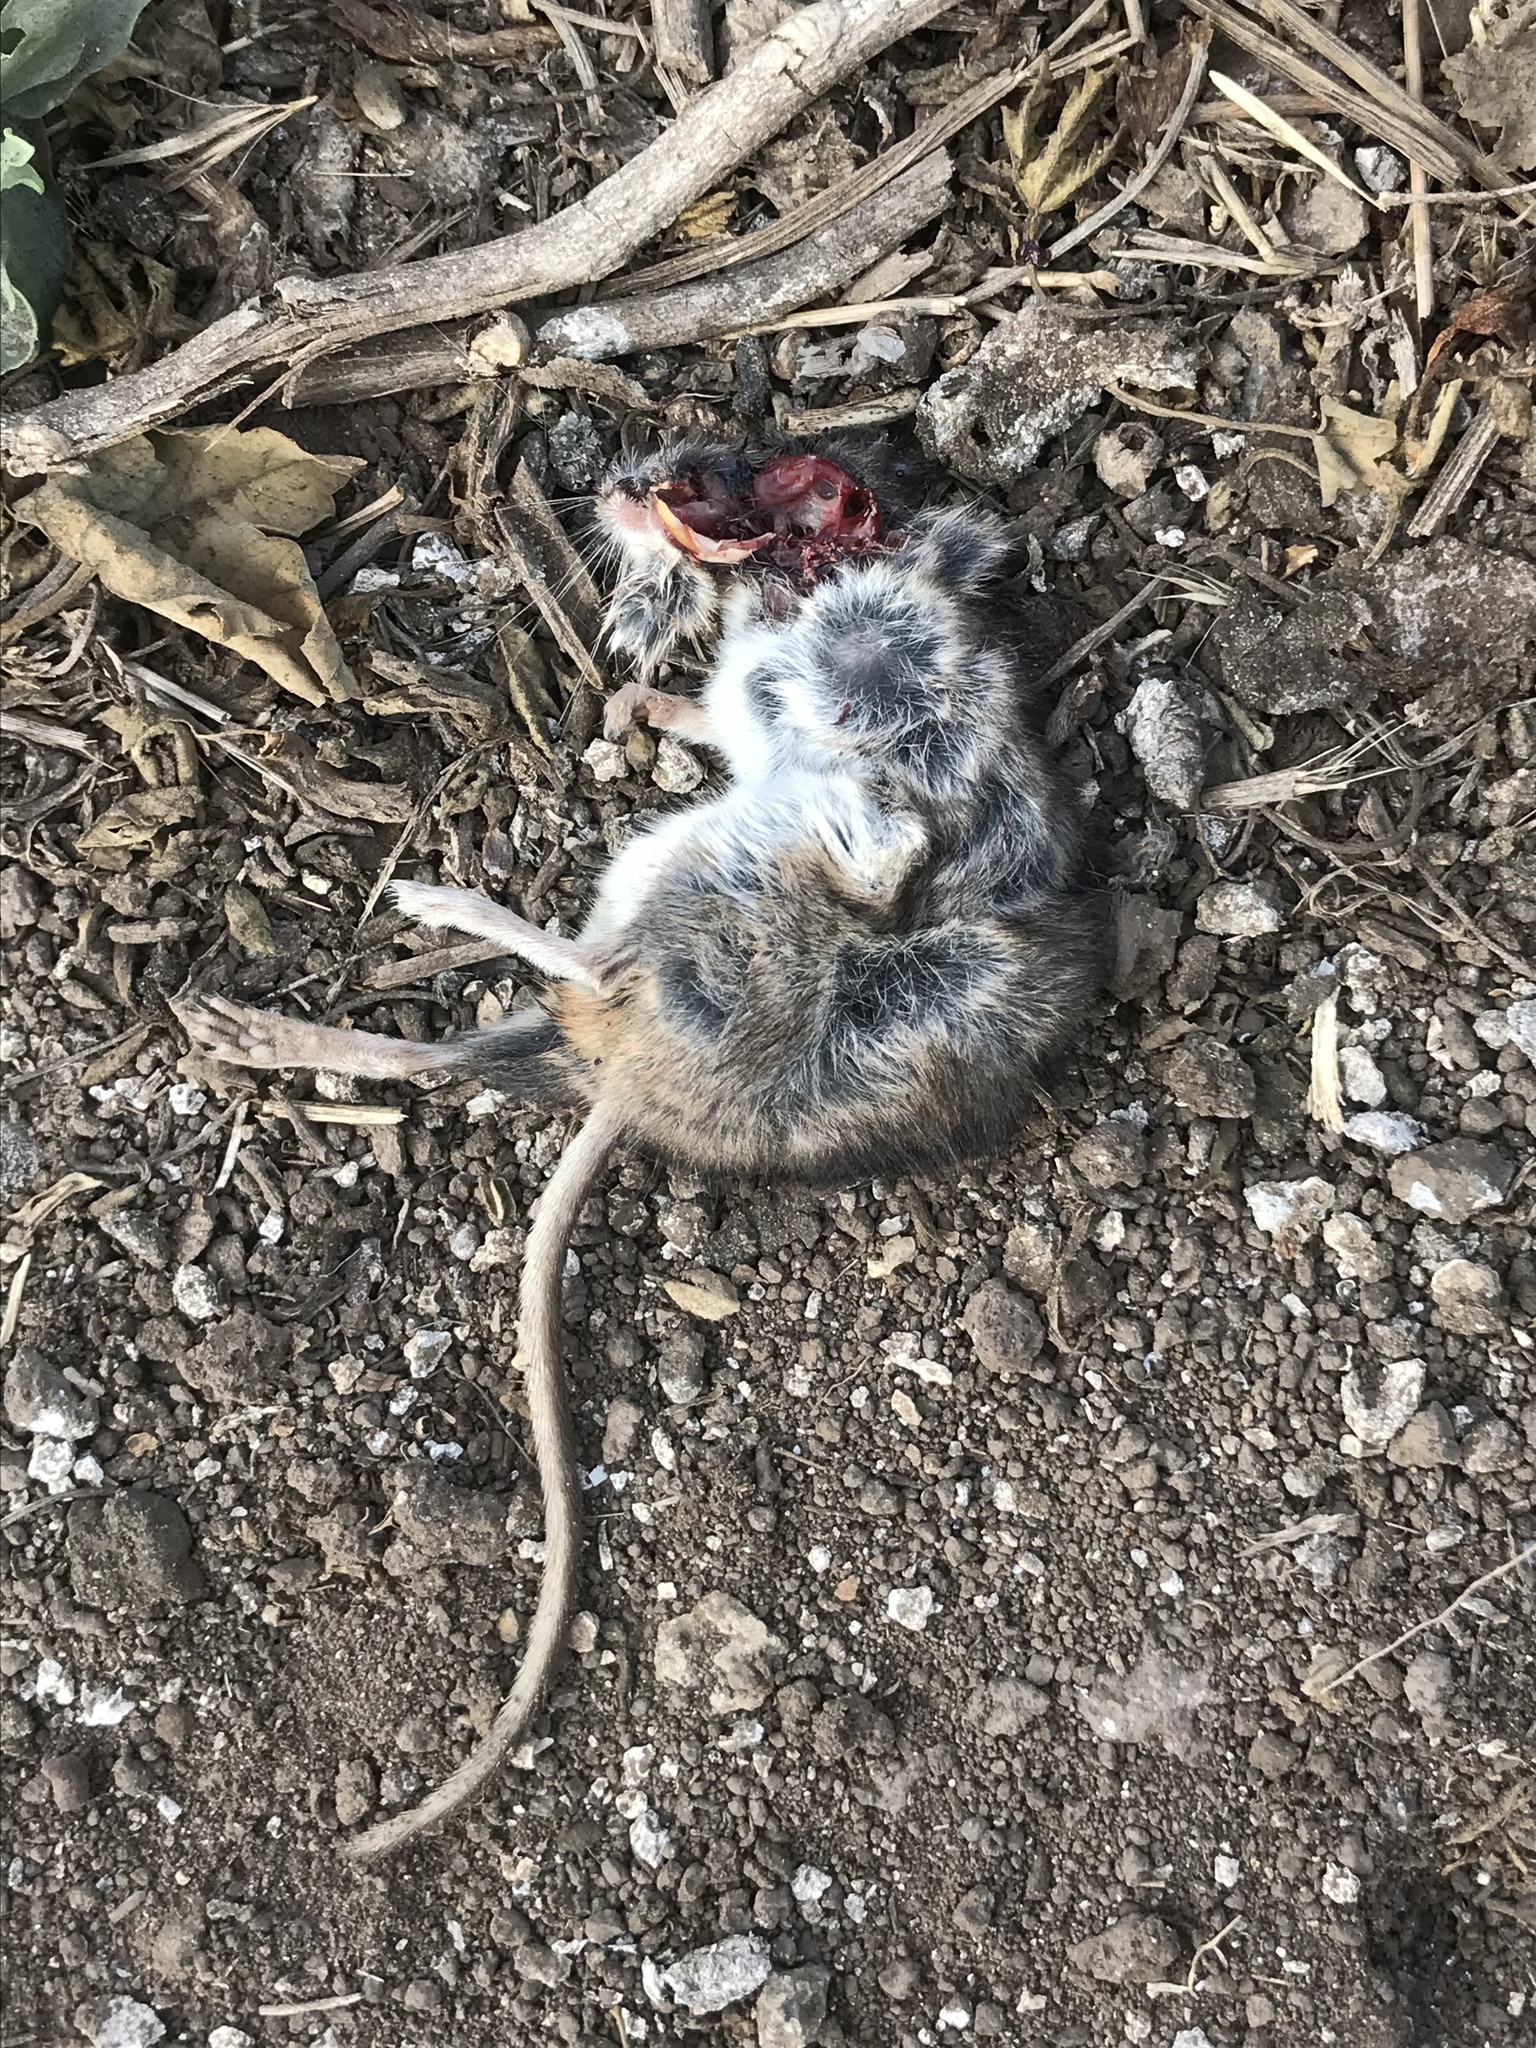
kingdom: Animalia
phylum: Chordata
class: Mammalia
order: Rodentia
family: Cricetidae
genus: Peromyscus
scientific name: Peromyscus maniculatus
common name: Deer mouse
